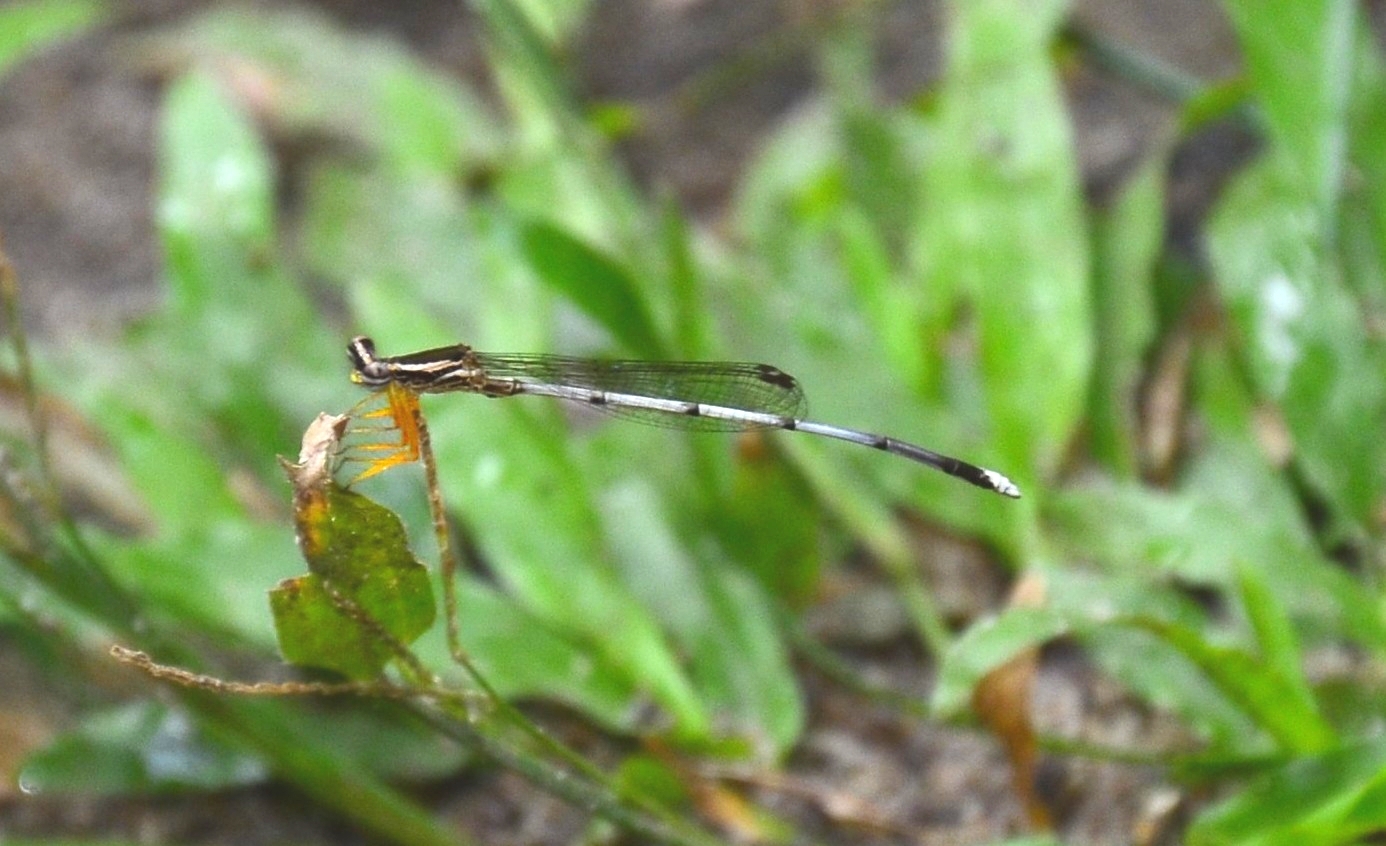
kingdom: Animalia
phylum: Arthropoda
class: Insecta
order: Odonata
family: Platycnemididae
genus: Copera
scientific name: Copera marginipes
